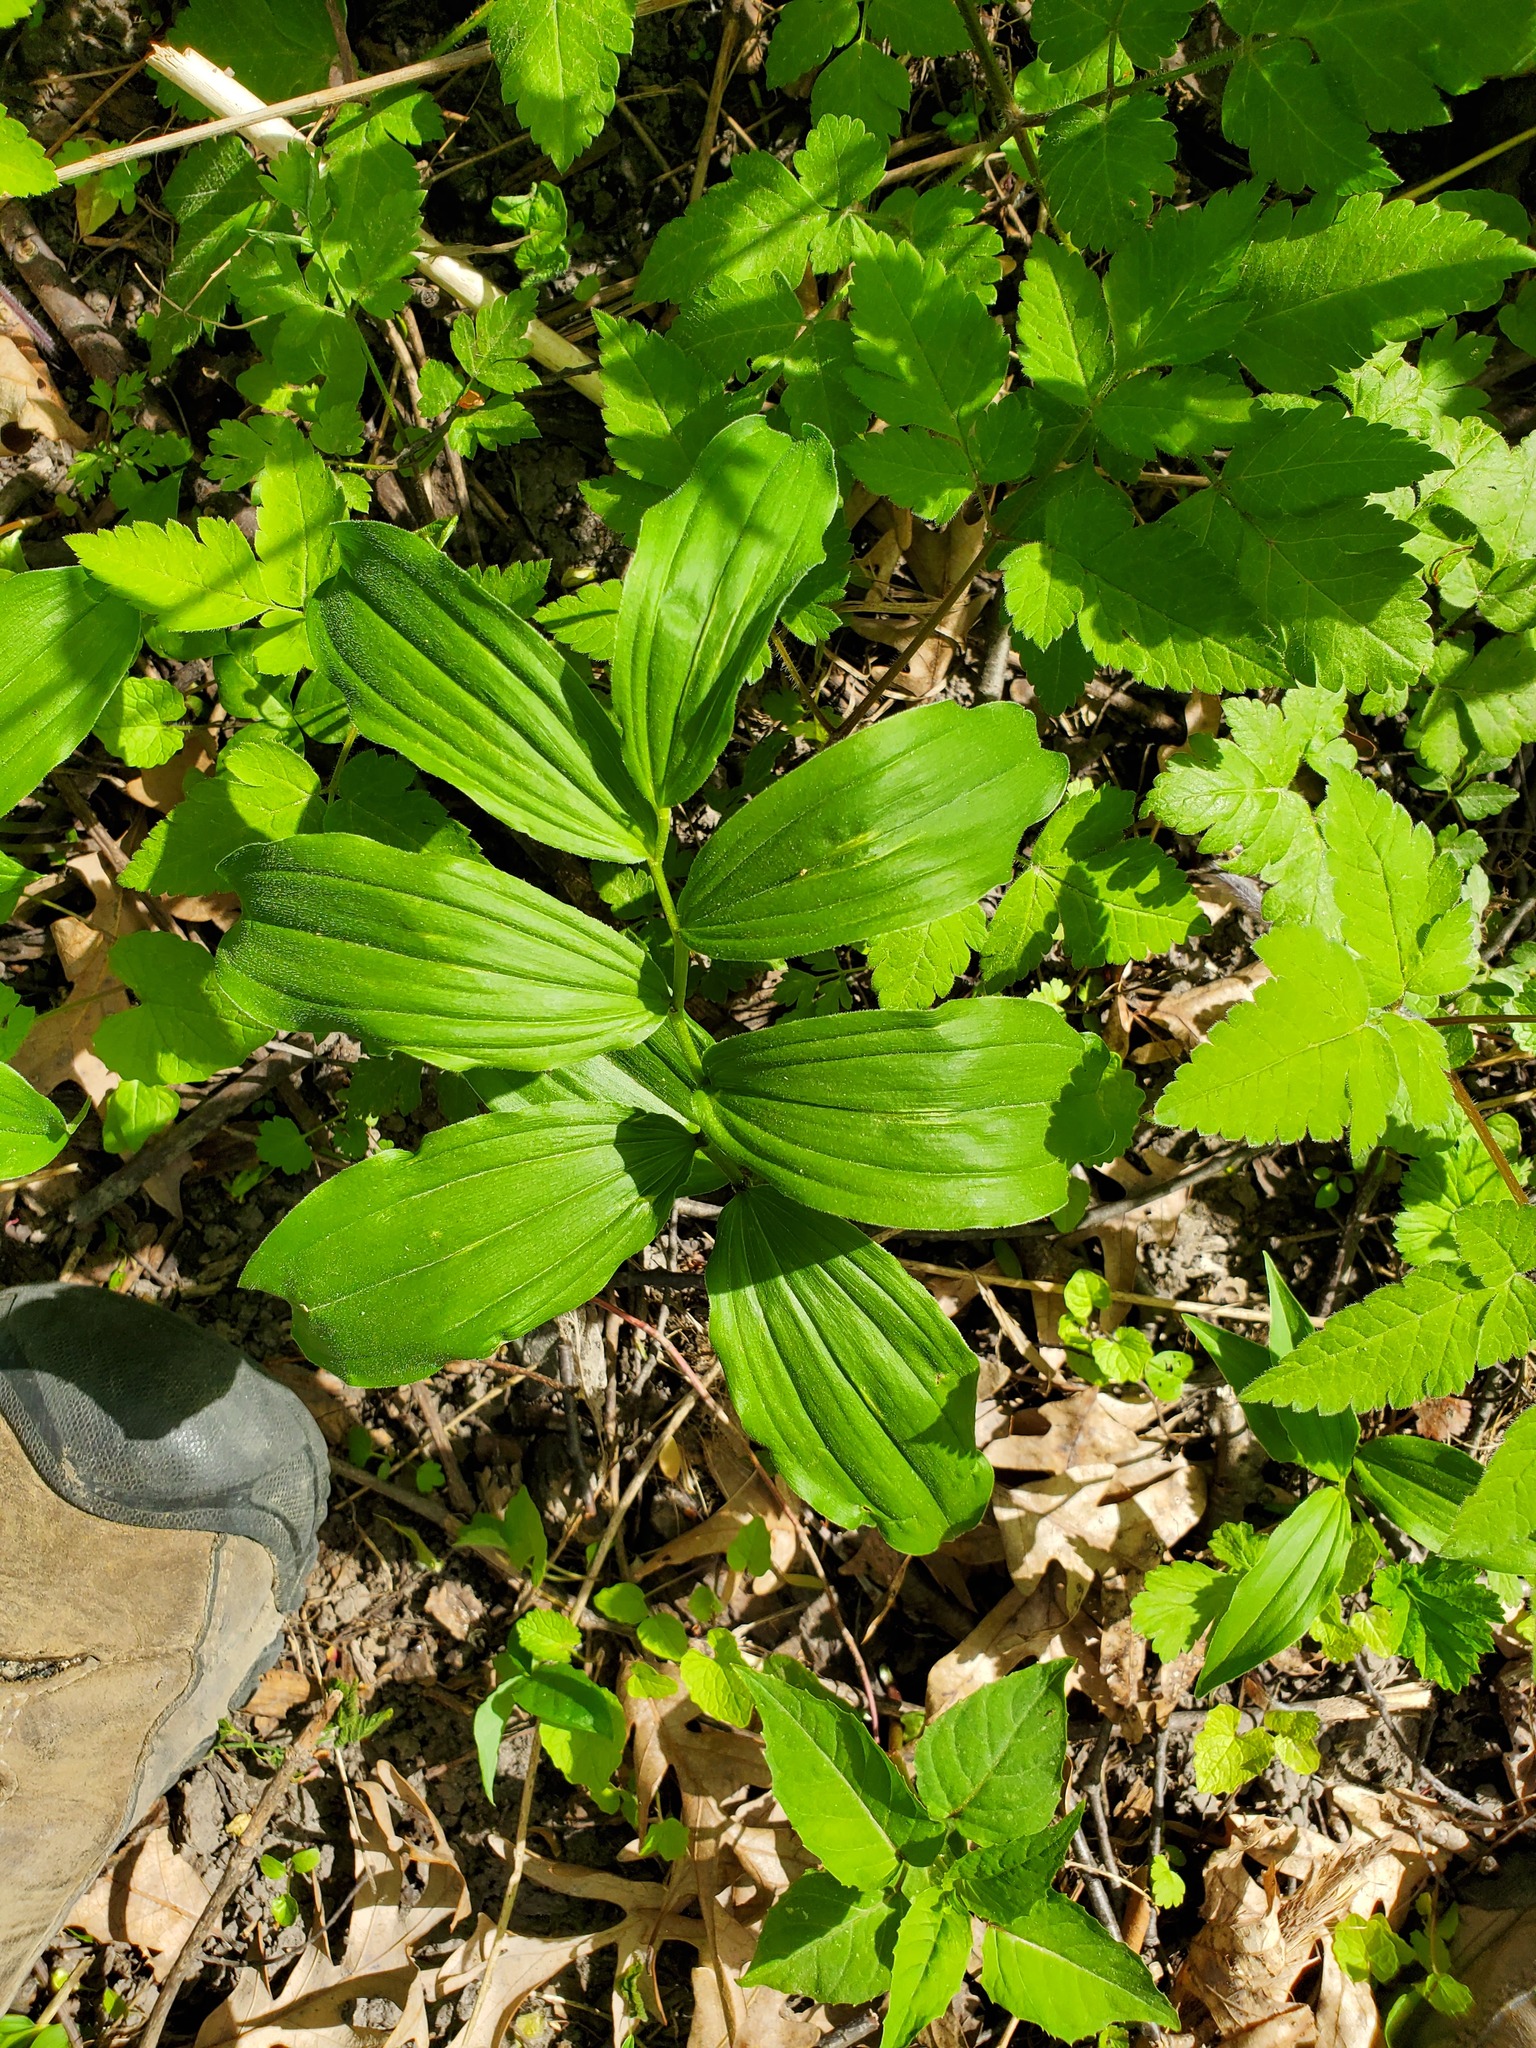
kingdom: Plantae
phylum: Tracheophyta
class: Liliopsida
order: Asparagales
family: Asparagaceae
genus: Maianthemum
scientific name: Maianthemum racemosum
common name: False spikenard
